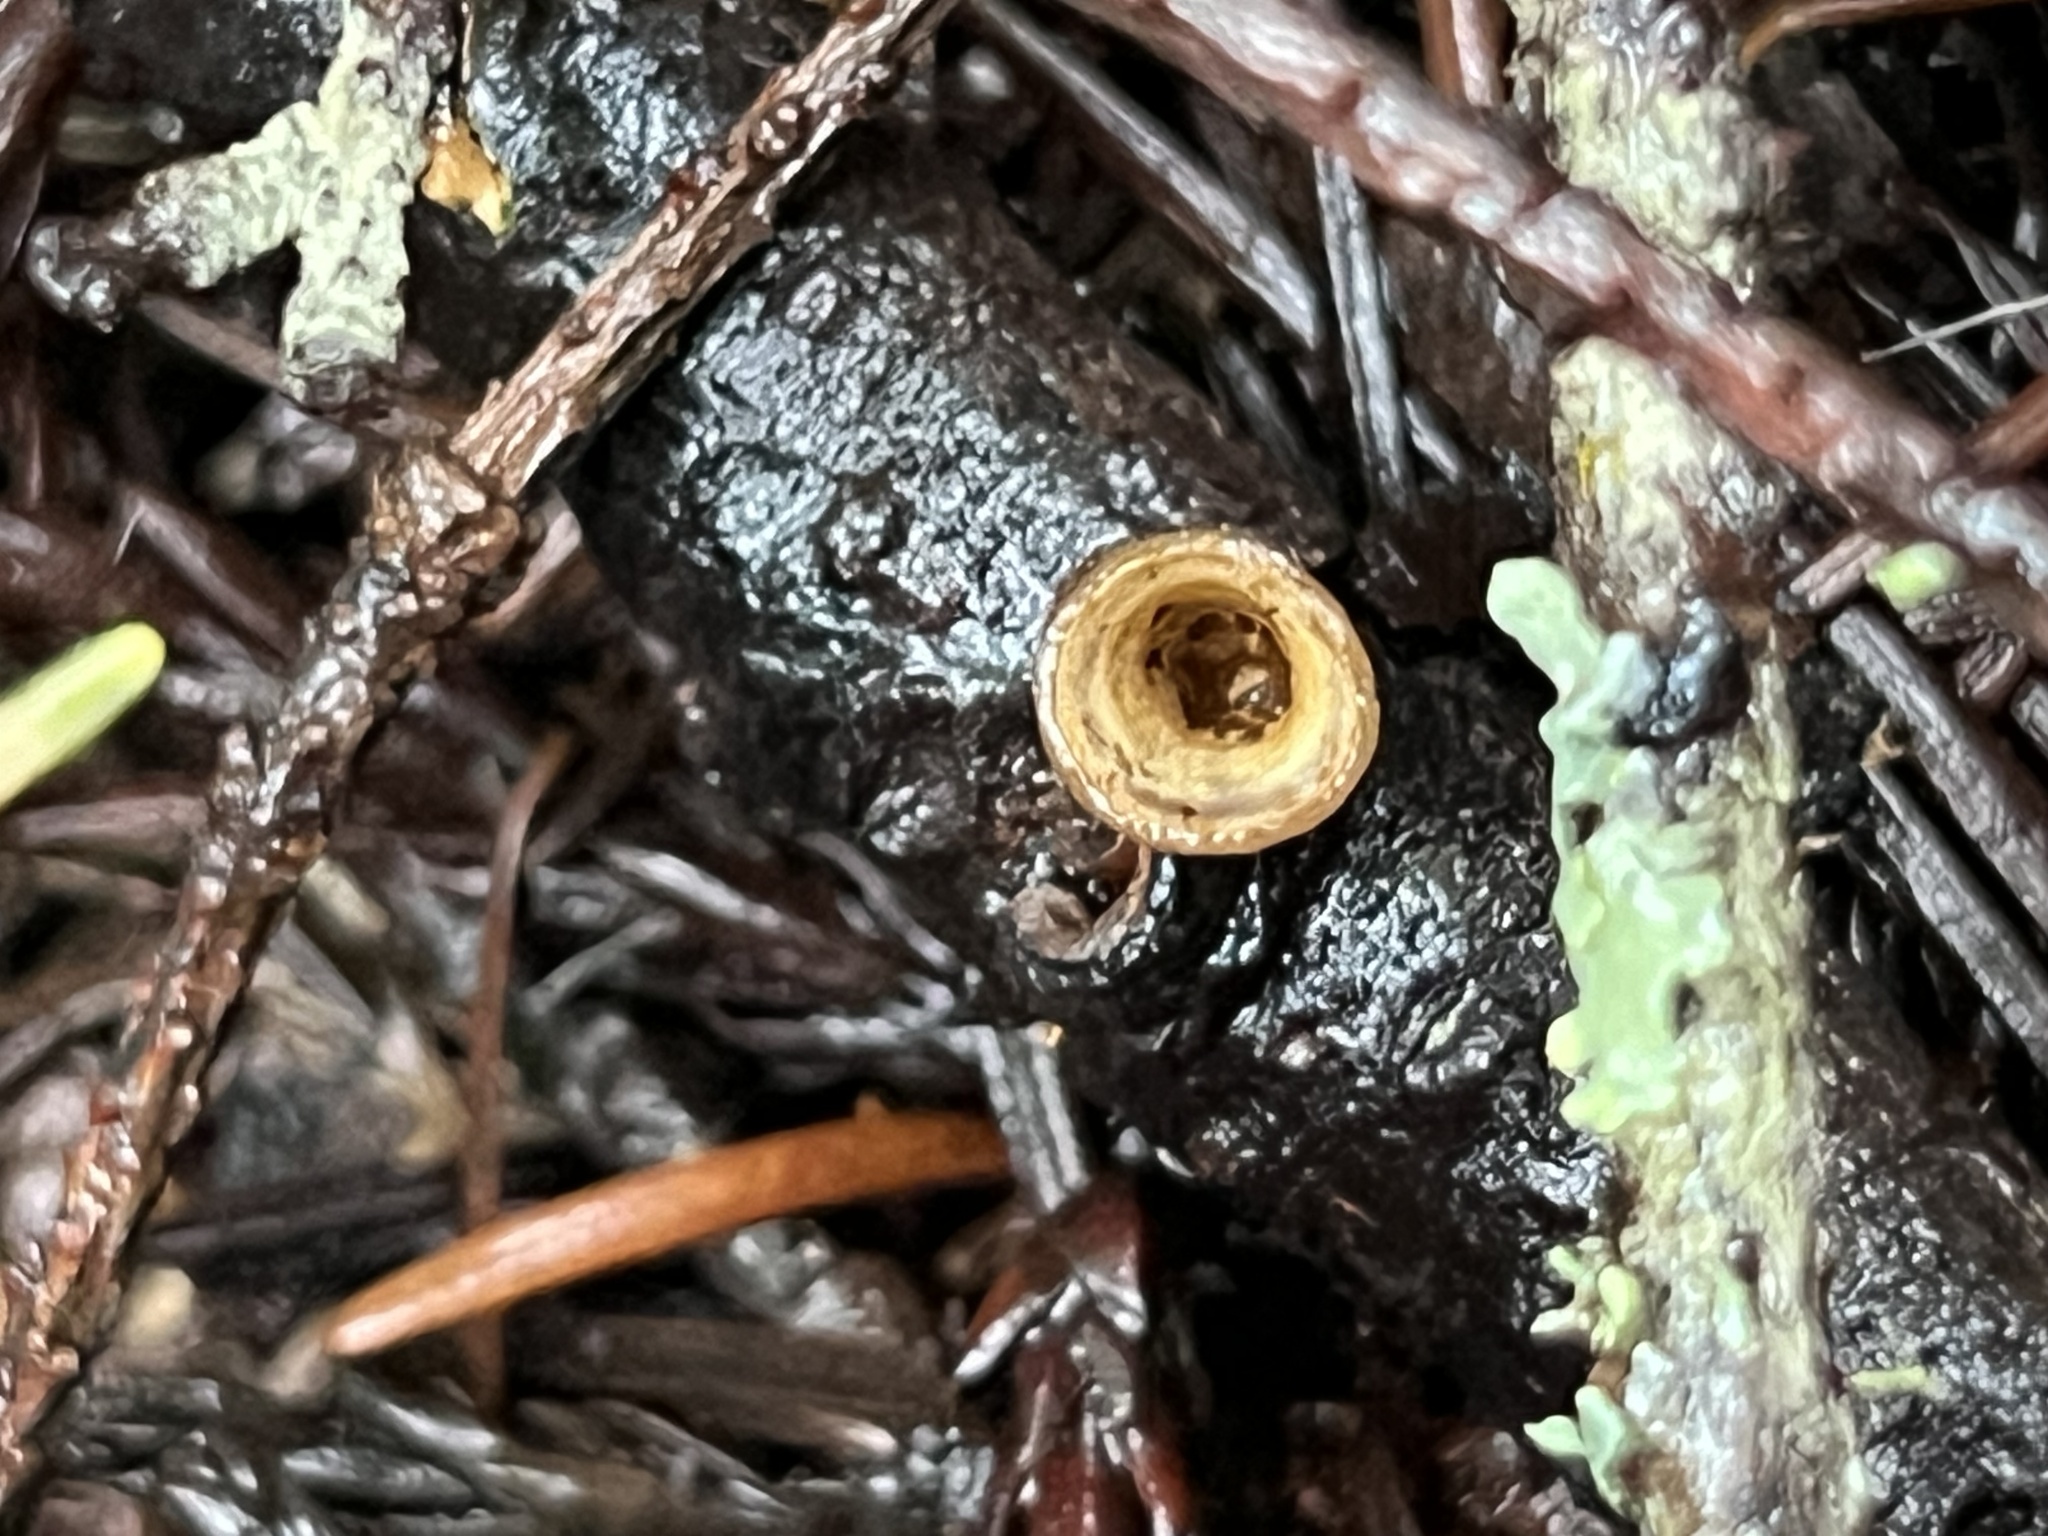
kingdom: Fungi
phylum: Basidiomycota
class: Agaricomycetes
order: Agaricales
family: Nidulariaceae
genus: Crucibulum
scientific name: Crucibulum laeve
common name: Common bird's nest
